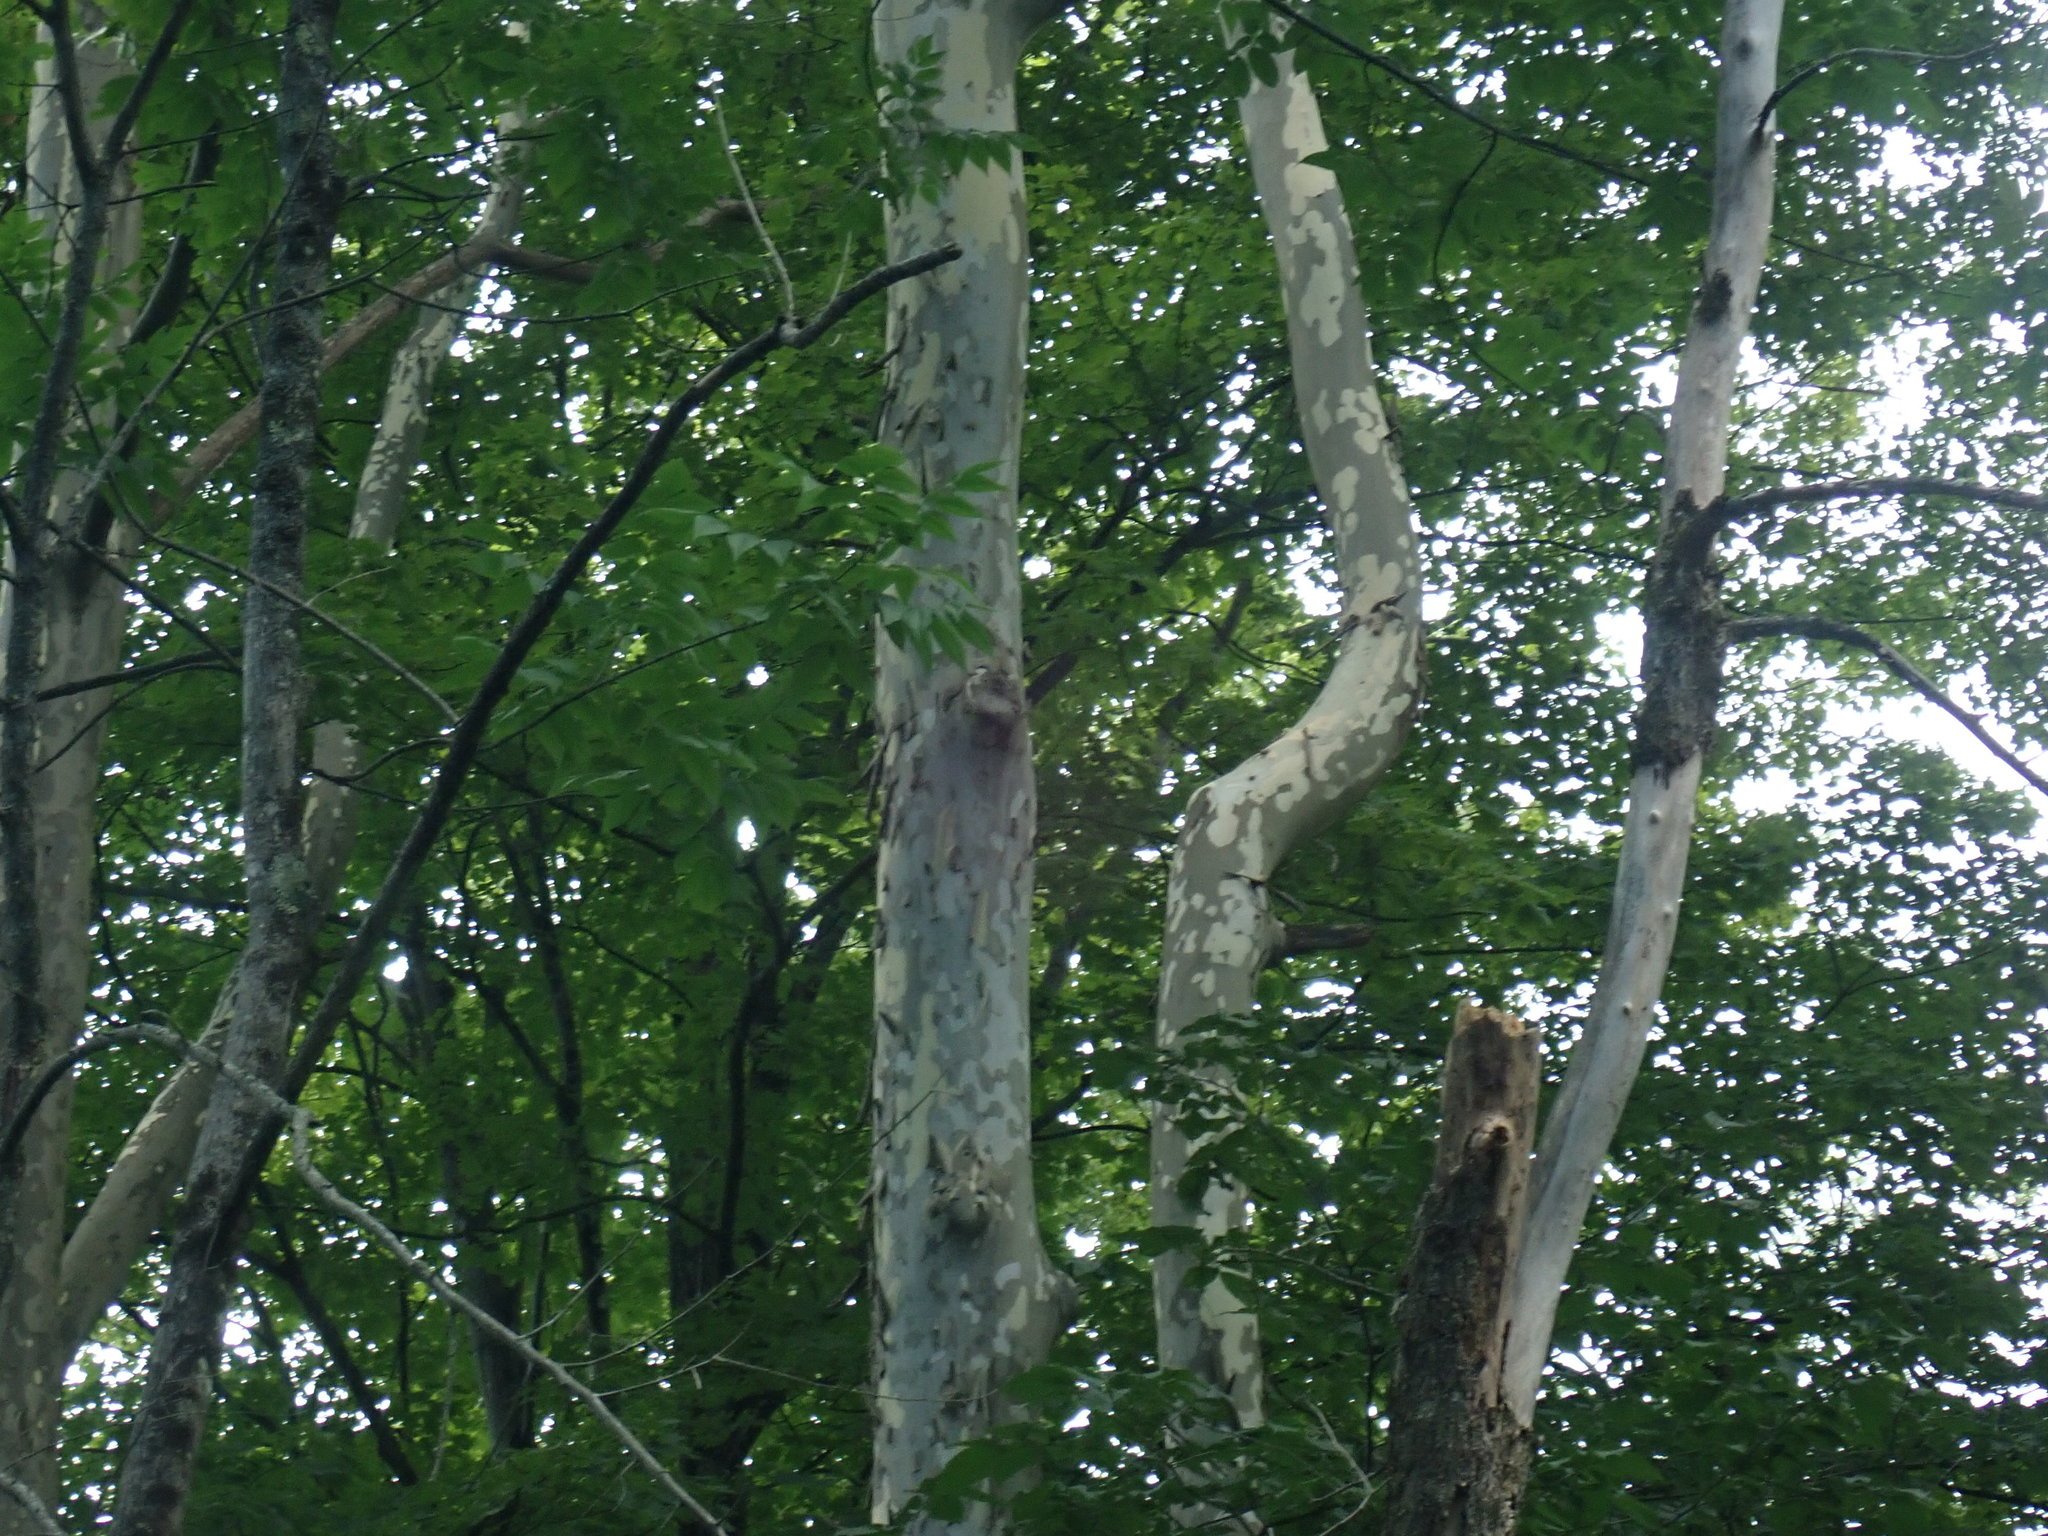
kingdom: Plantae
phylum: Tracheophyta
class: Magnoliopsida
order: Proteales
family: Platanaceae
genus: Platanus
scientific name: Platanus occidentalis
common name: American sycamore
